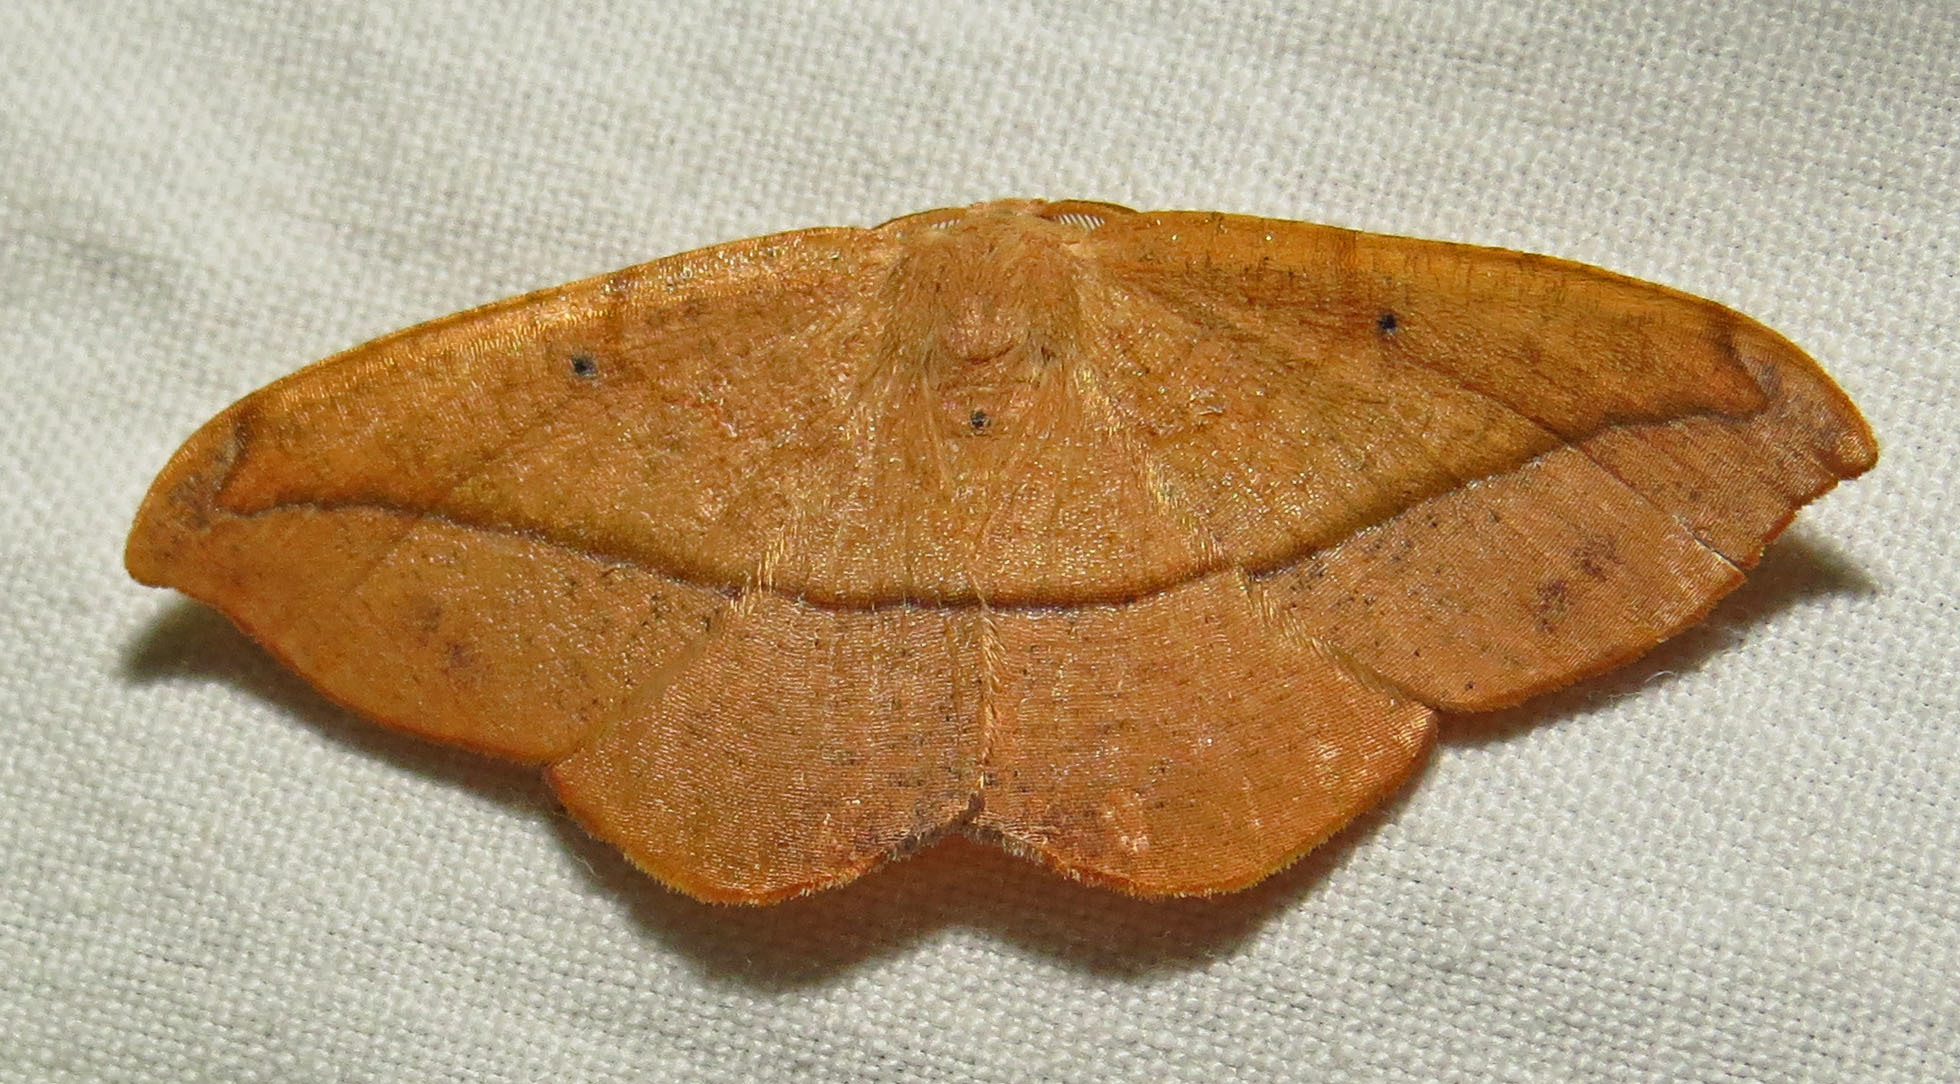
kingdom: Animalia
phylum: Arthropoda
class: Insecta
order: Lepidoptera
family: Geometridae
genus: Patalene
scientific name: Patalene olyzonaria
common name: Juniper geometer moth
